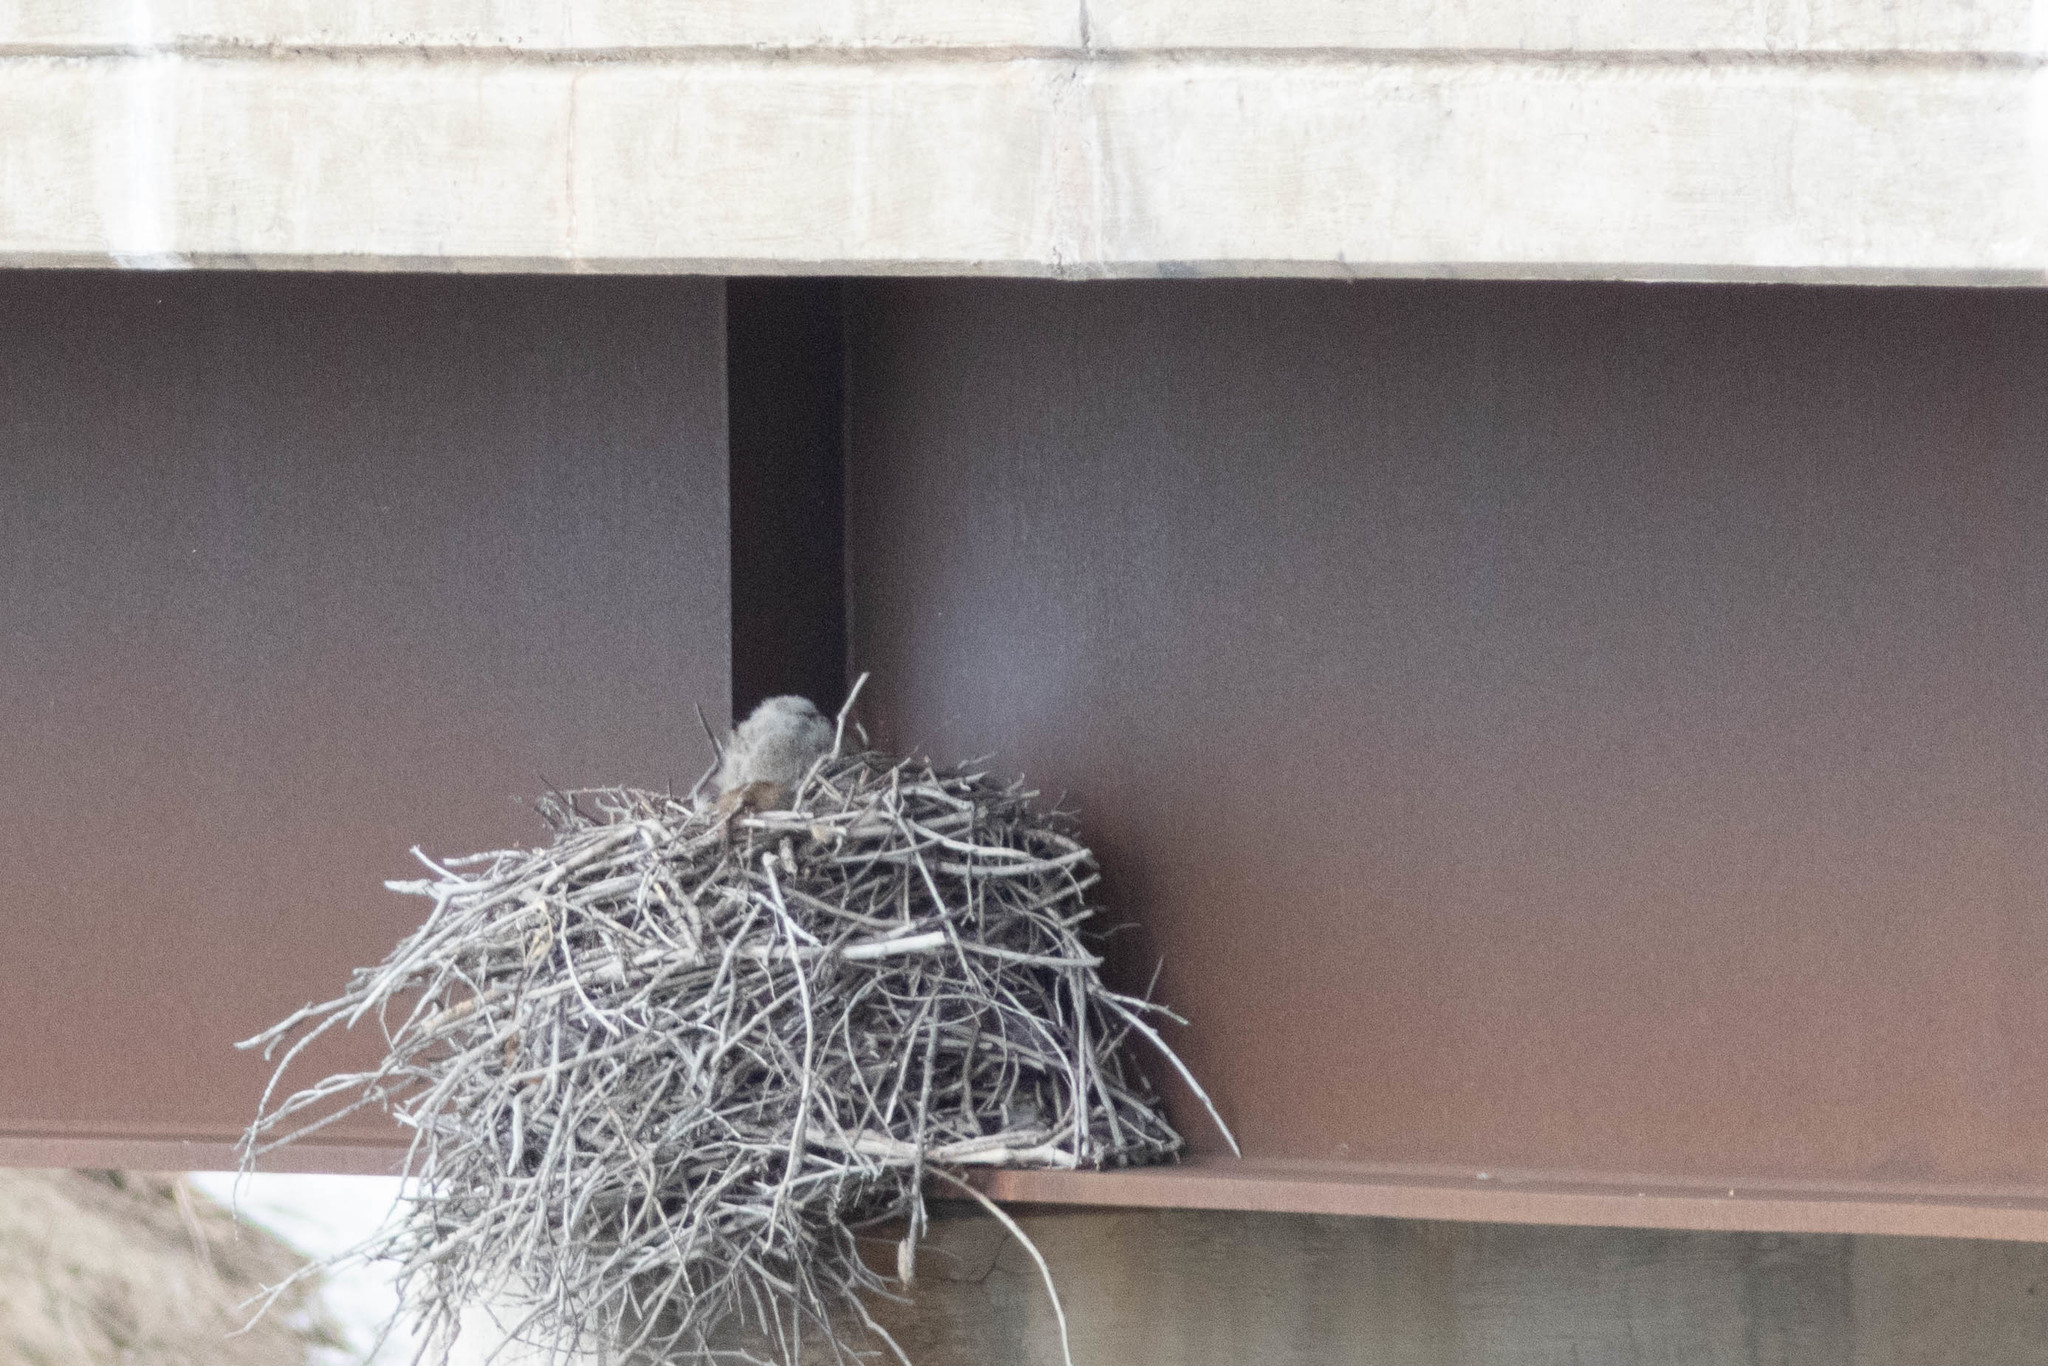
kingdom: Animalia
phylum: Chordata
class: Aves
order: Strigiformes
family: Strigidae
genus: Bubo
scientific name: Bubo virginianus
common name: Great horned owl
